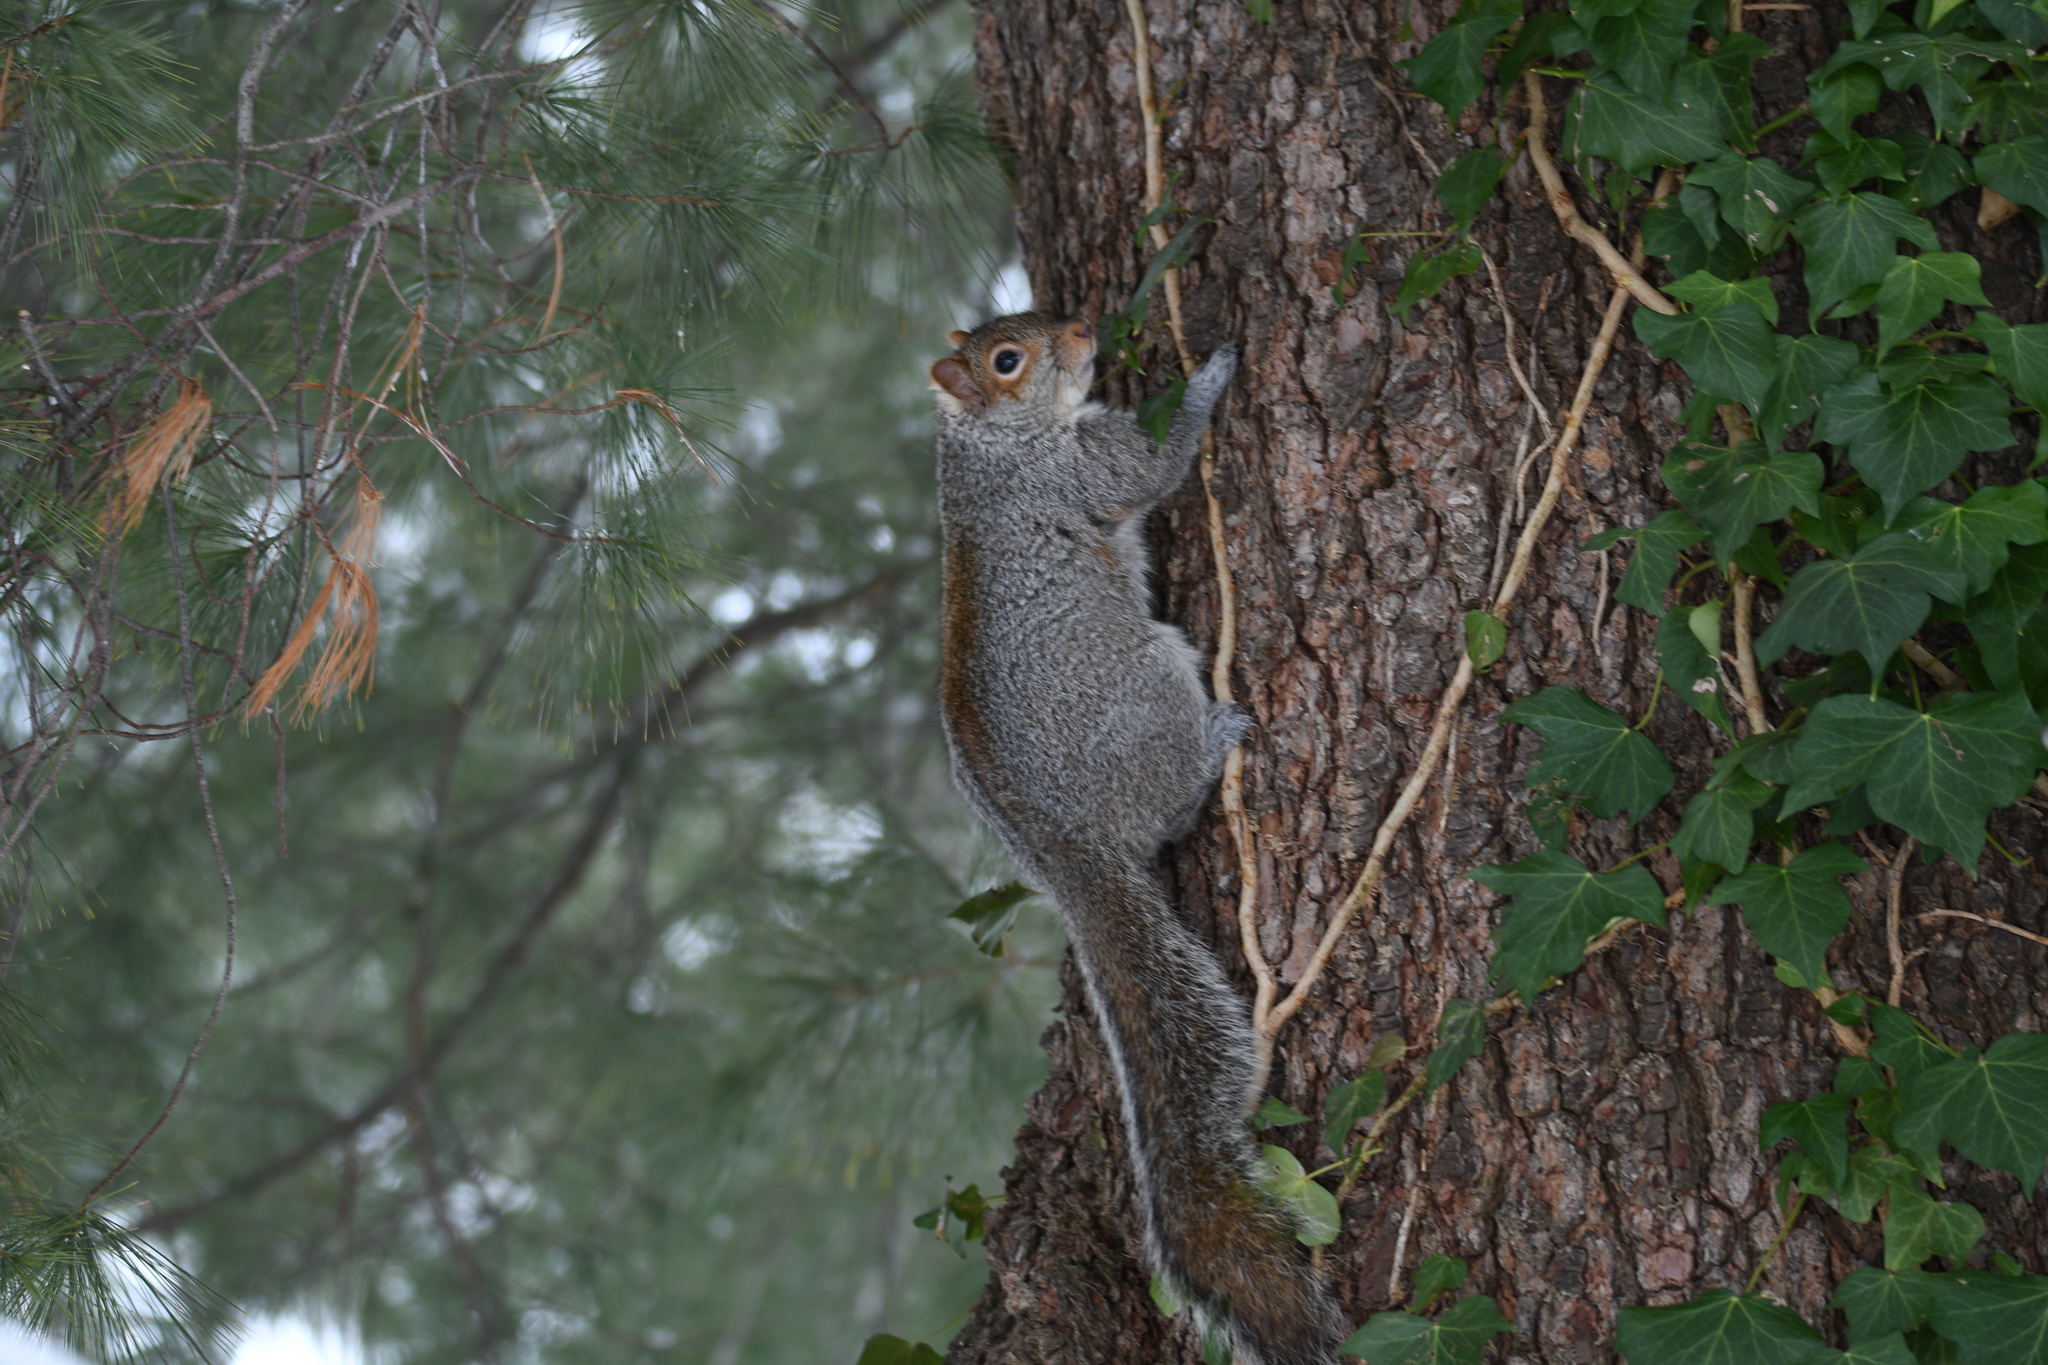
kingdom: Animalia
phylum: Chordata
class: Mammalia
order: Rodentia
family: Sciuridae
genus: Sciurus
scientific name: Sciurus carolinensis
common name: Eastern gray squirrel
